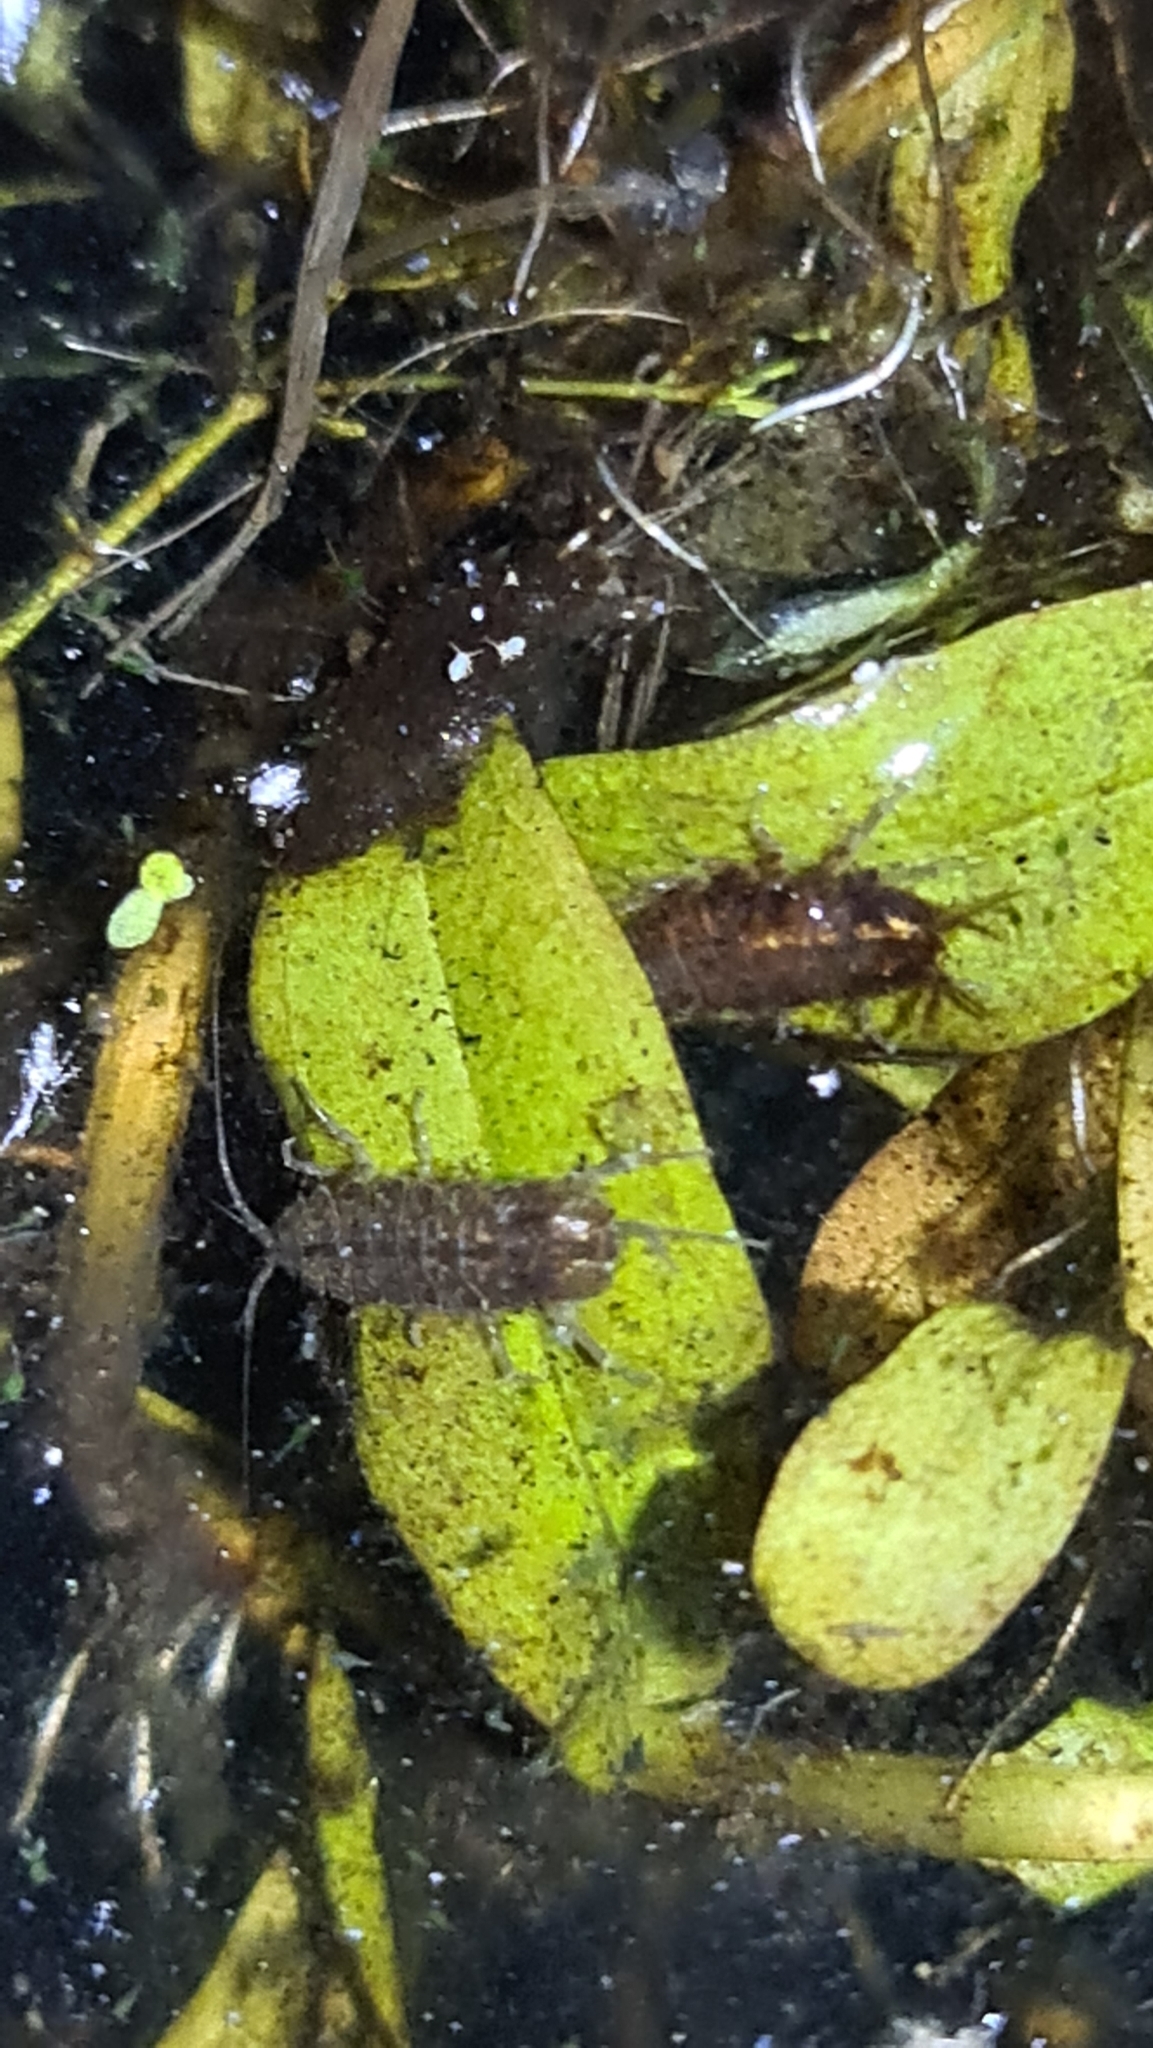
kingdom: Animalia
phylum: Arthropoda
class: Malacostraca
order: Isopoda
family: Asellidae
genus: Asellus
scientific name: Asellus aquaticus
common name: Water hog lice/slaters
